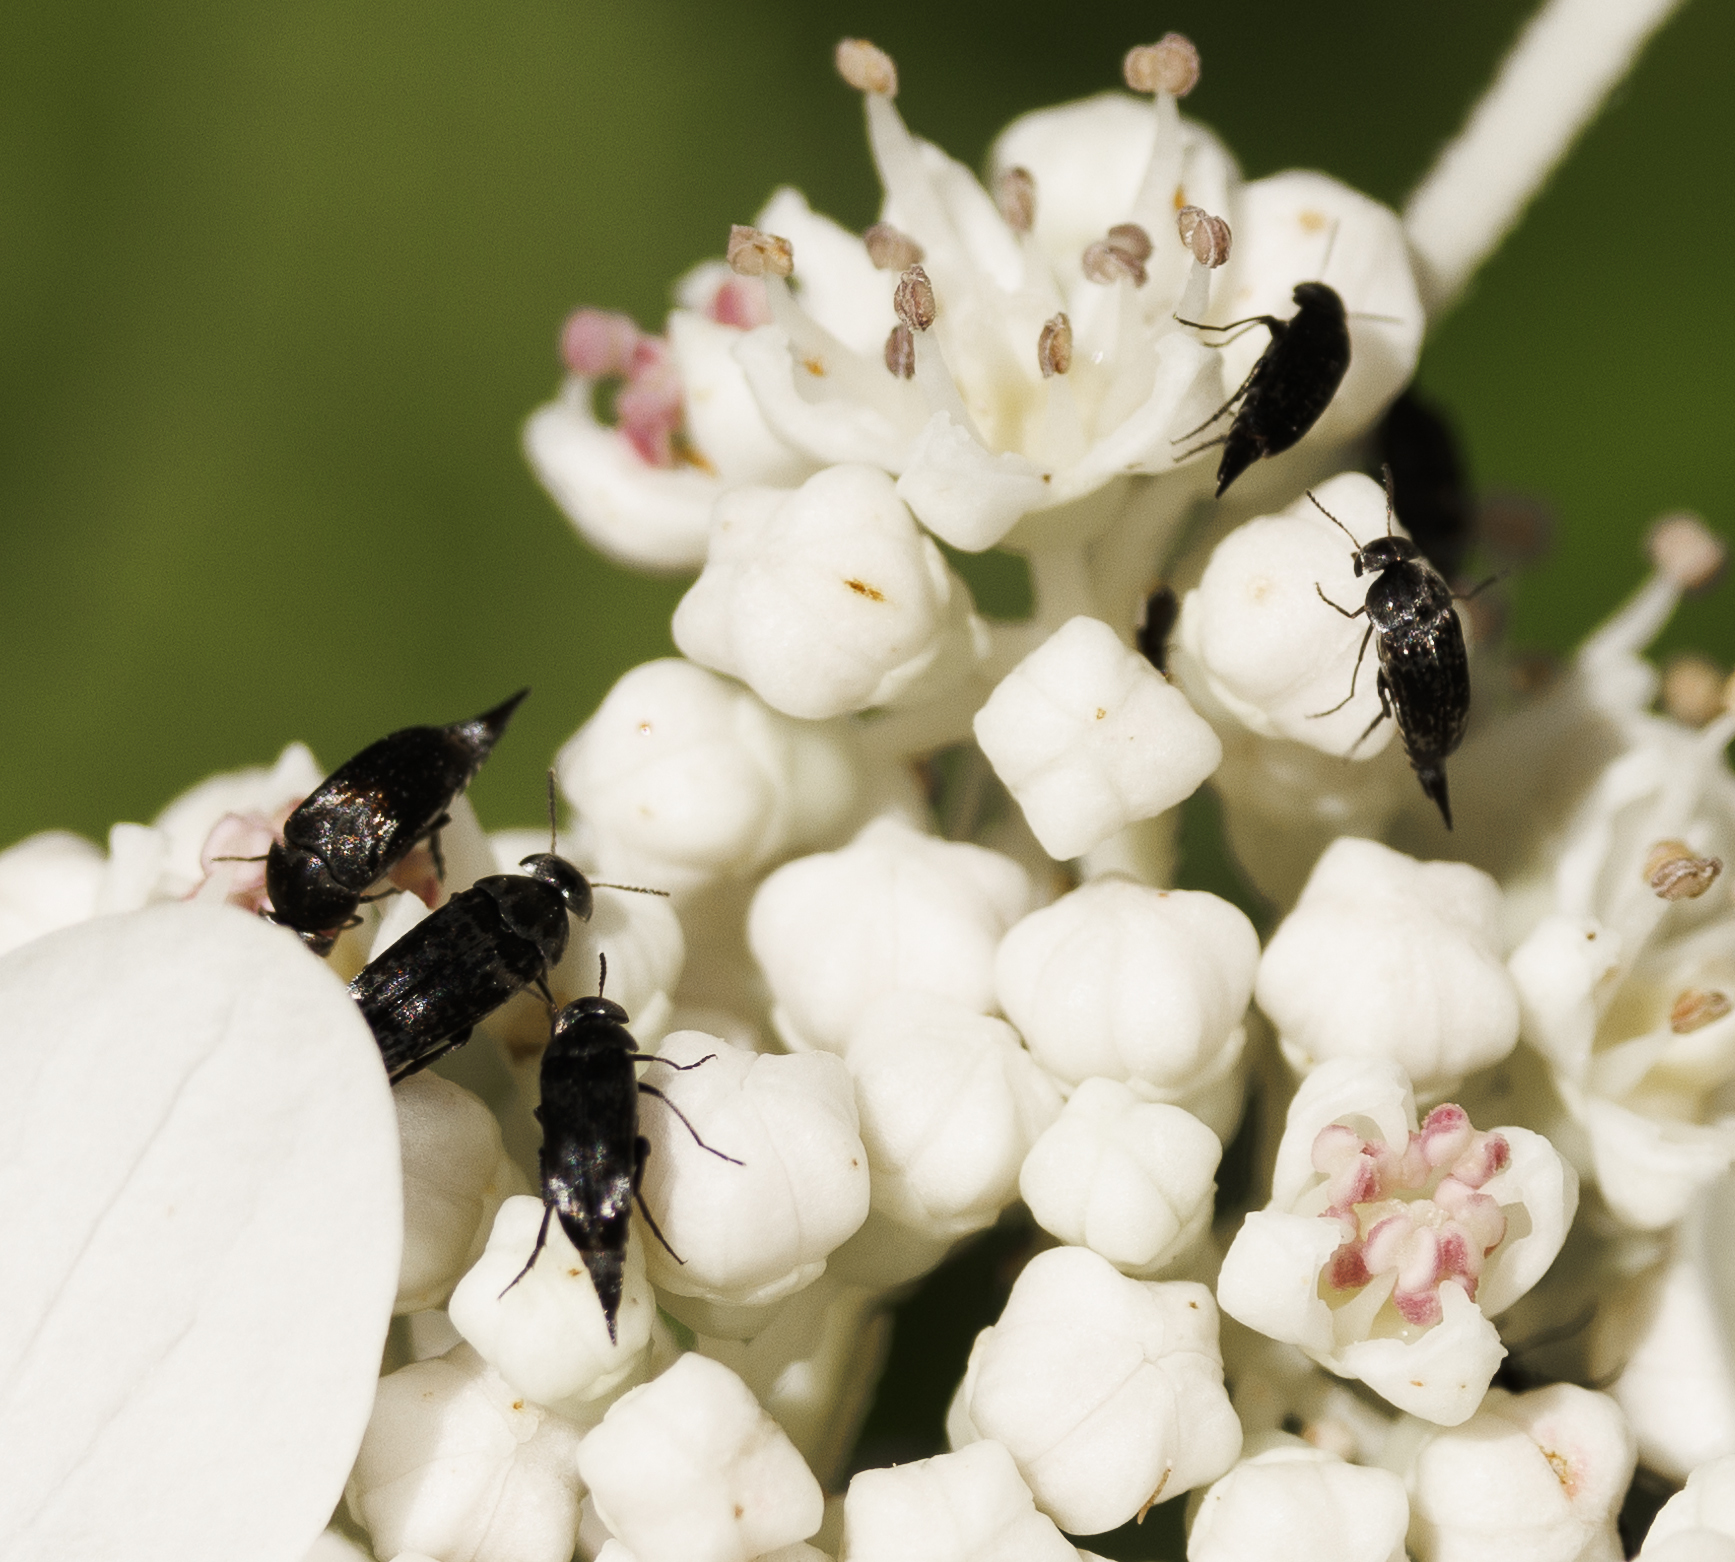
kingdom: Animalia
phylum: Arthropoda
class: Insecta
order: Coleoptera
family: Mordellidae
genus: Mordella
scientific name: Mordella marginata
